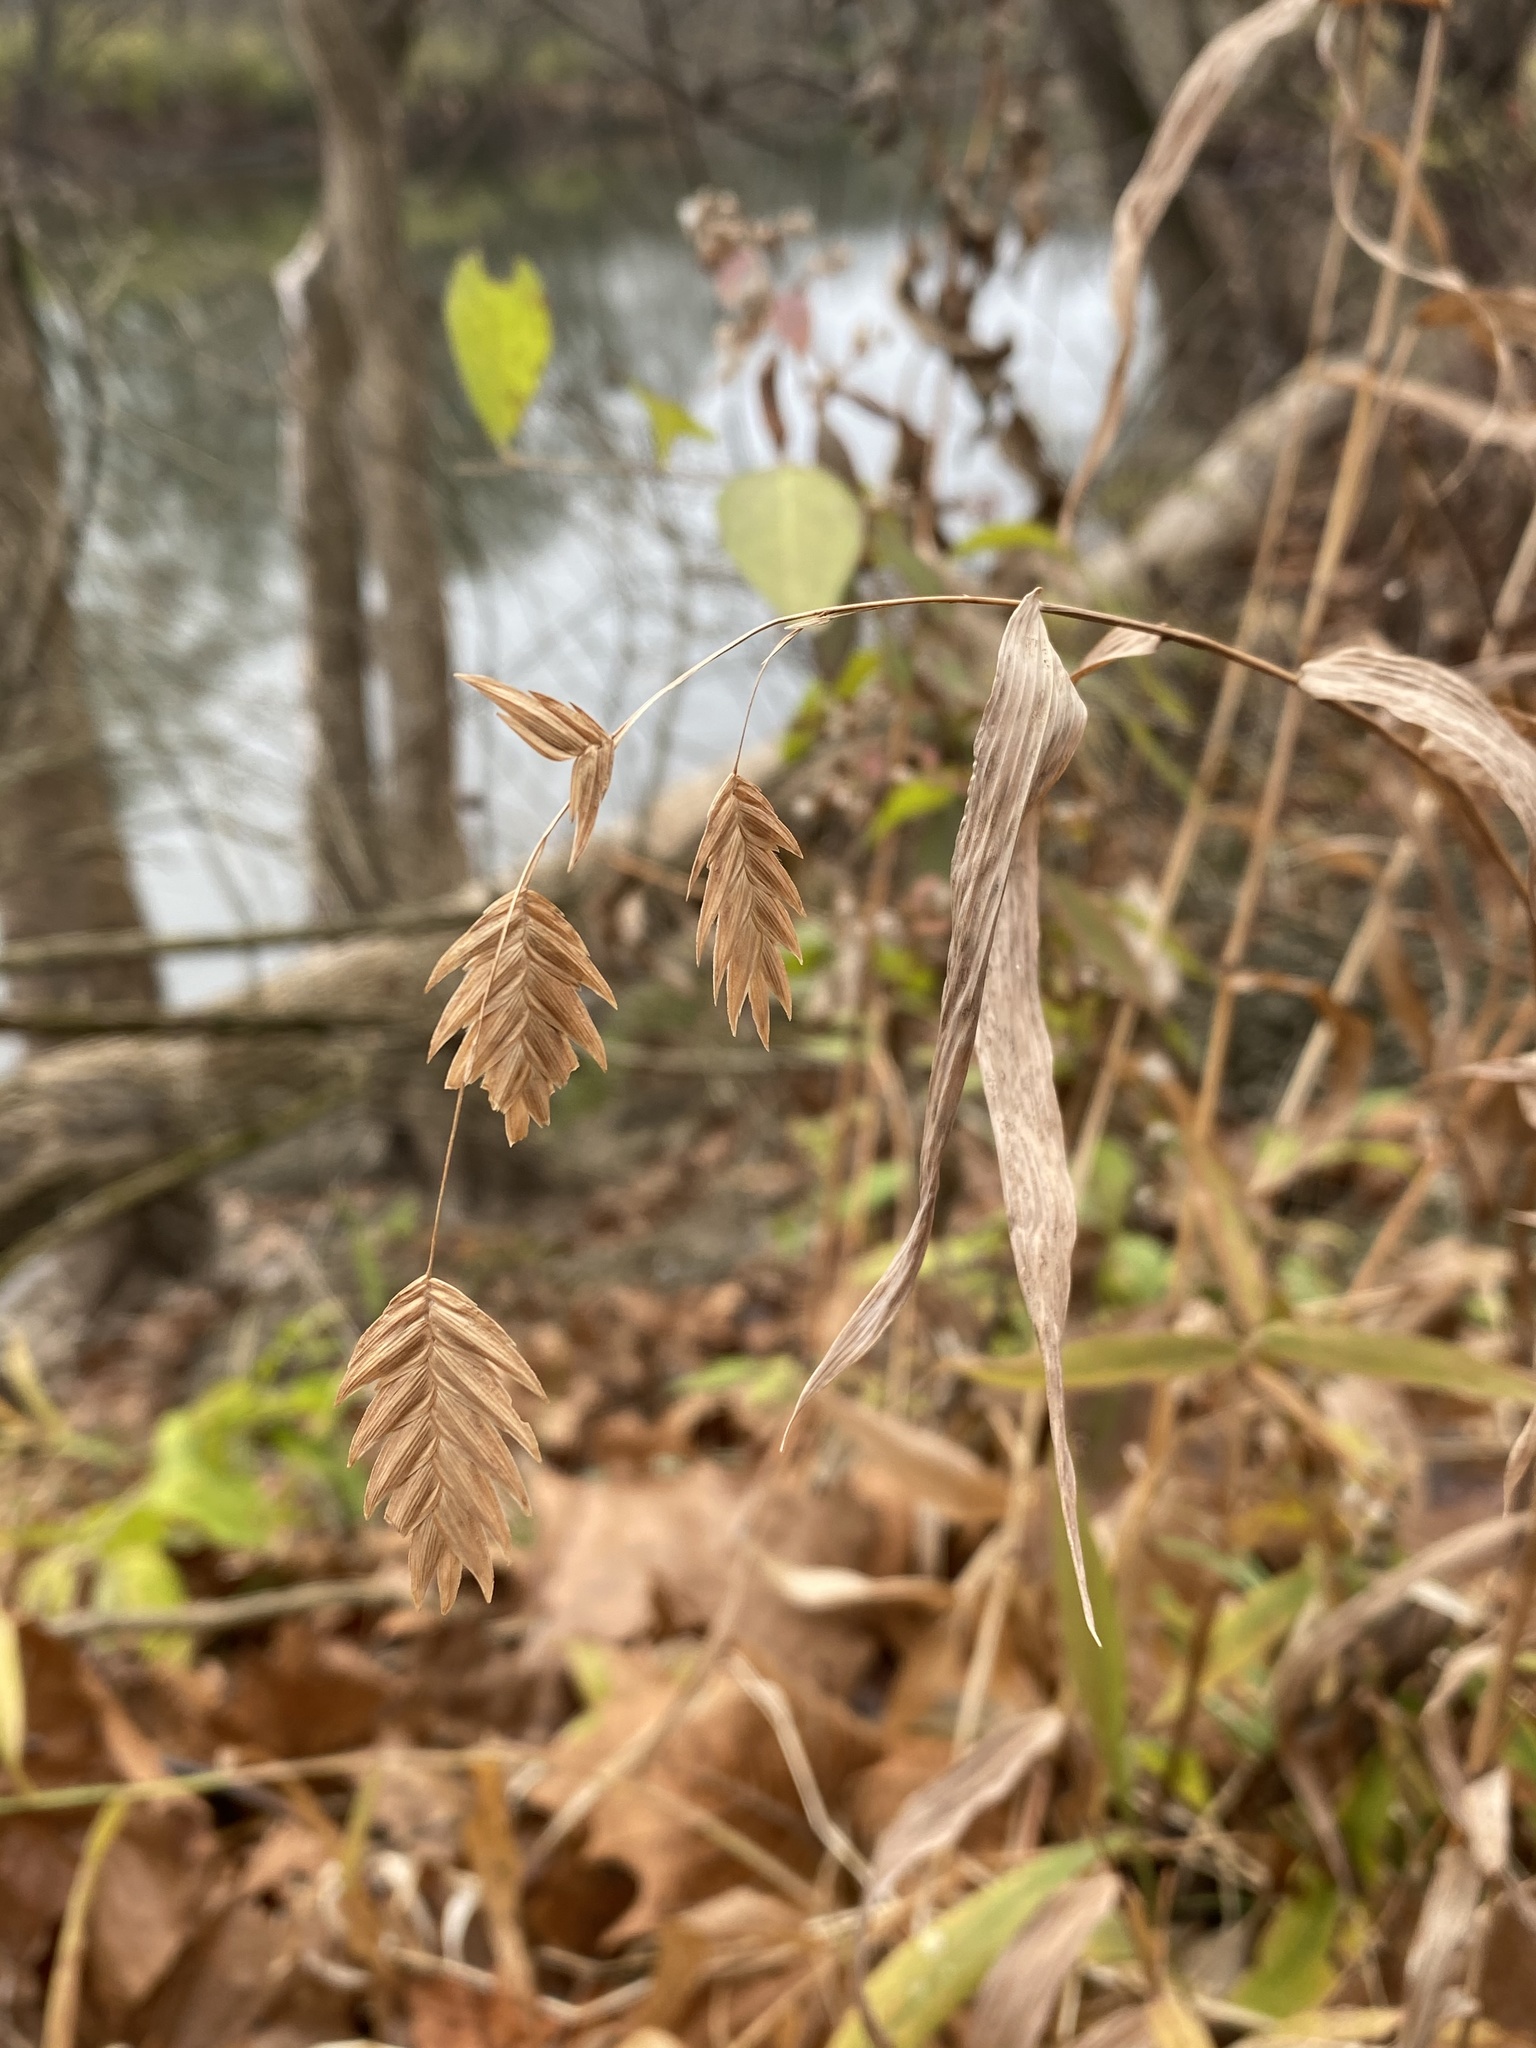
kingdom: Plantae
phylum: Tracheophyta
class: Liliopsida
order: Poales
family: Poaceae
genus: Chasmanthium
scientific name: Chasmanthium latifolium
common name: Broad-leaved chasmanthium
